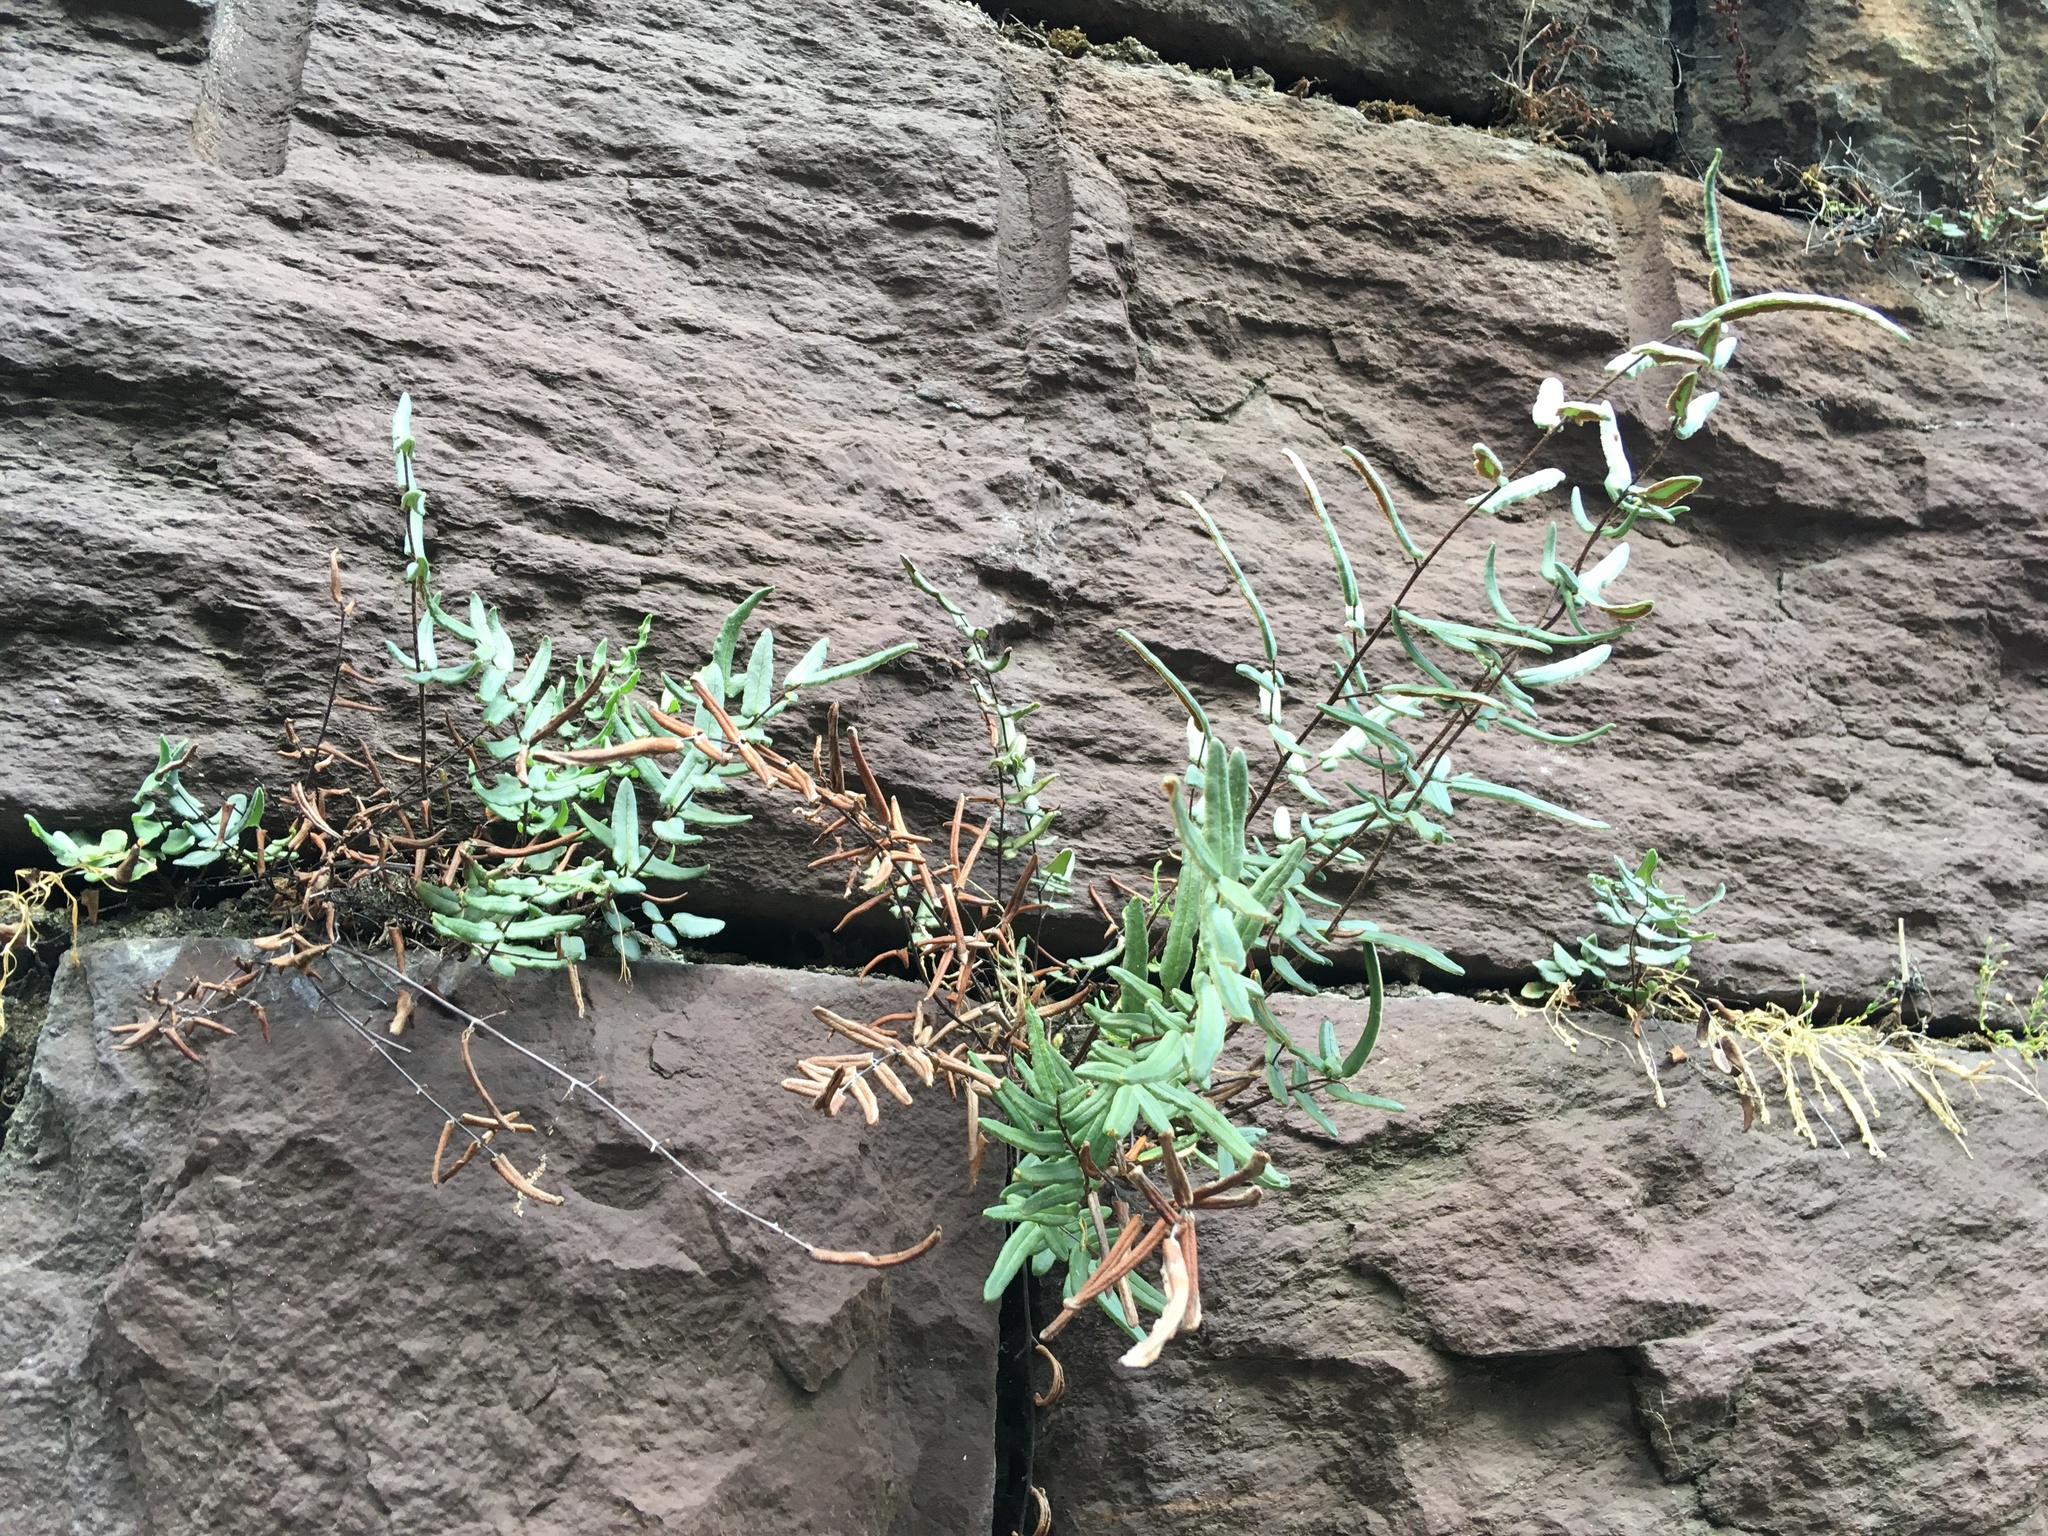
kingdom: Plantae
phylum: Tracheophyta
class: Polypodiopsida
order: Polypodiales
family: Pteridaceae
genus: Pellaea
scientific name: Pellaea atropurpurea
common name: Hairy cliffbrake
